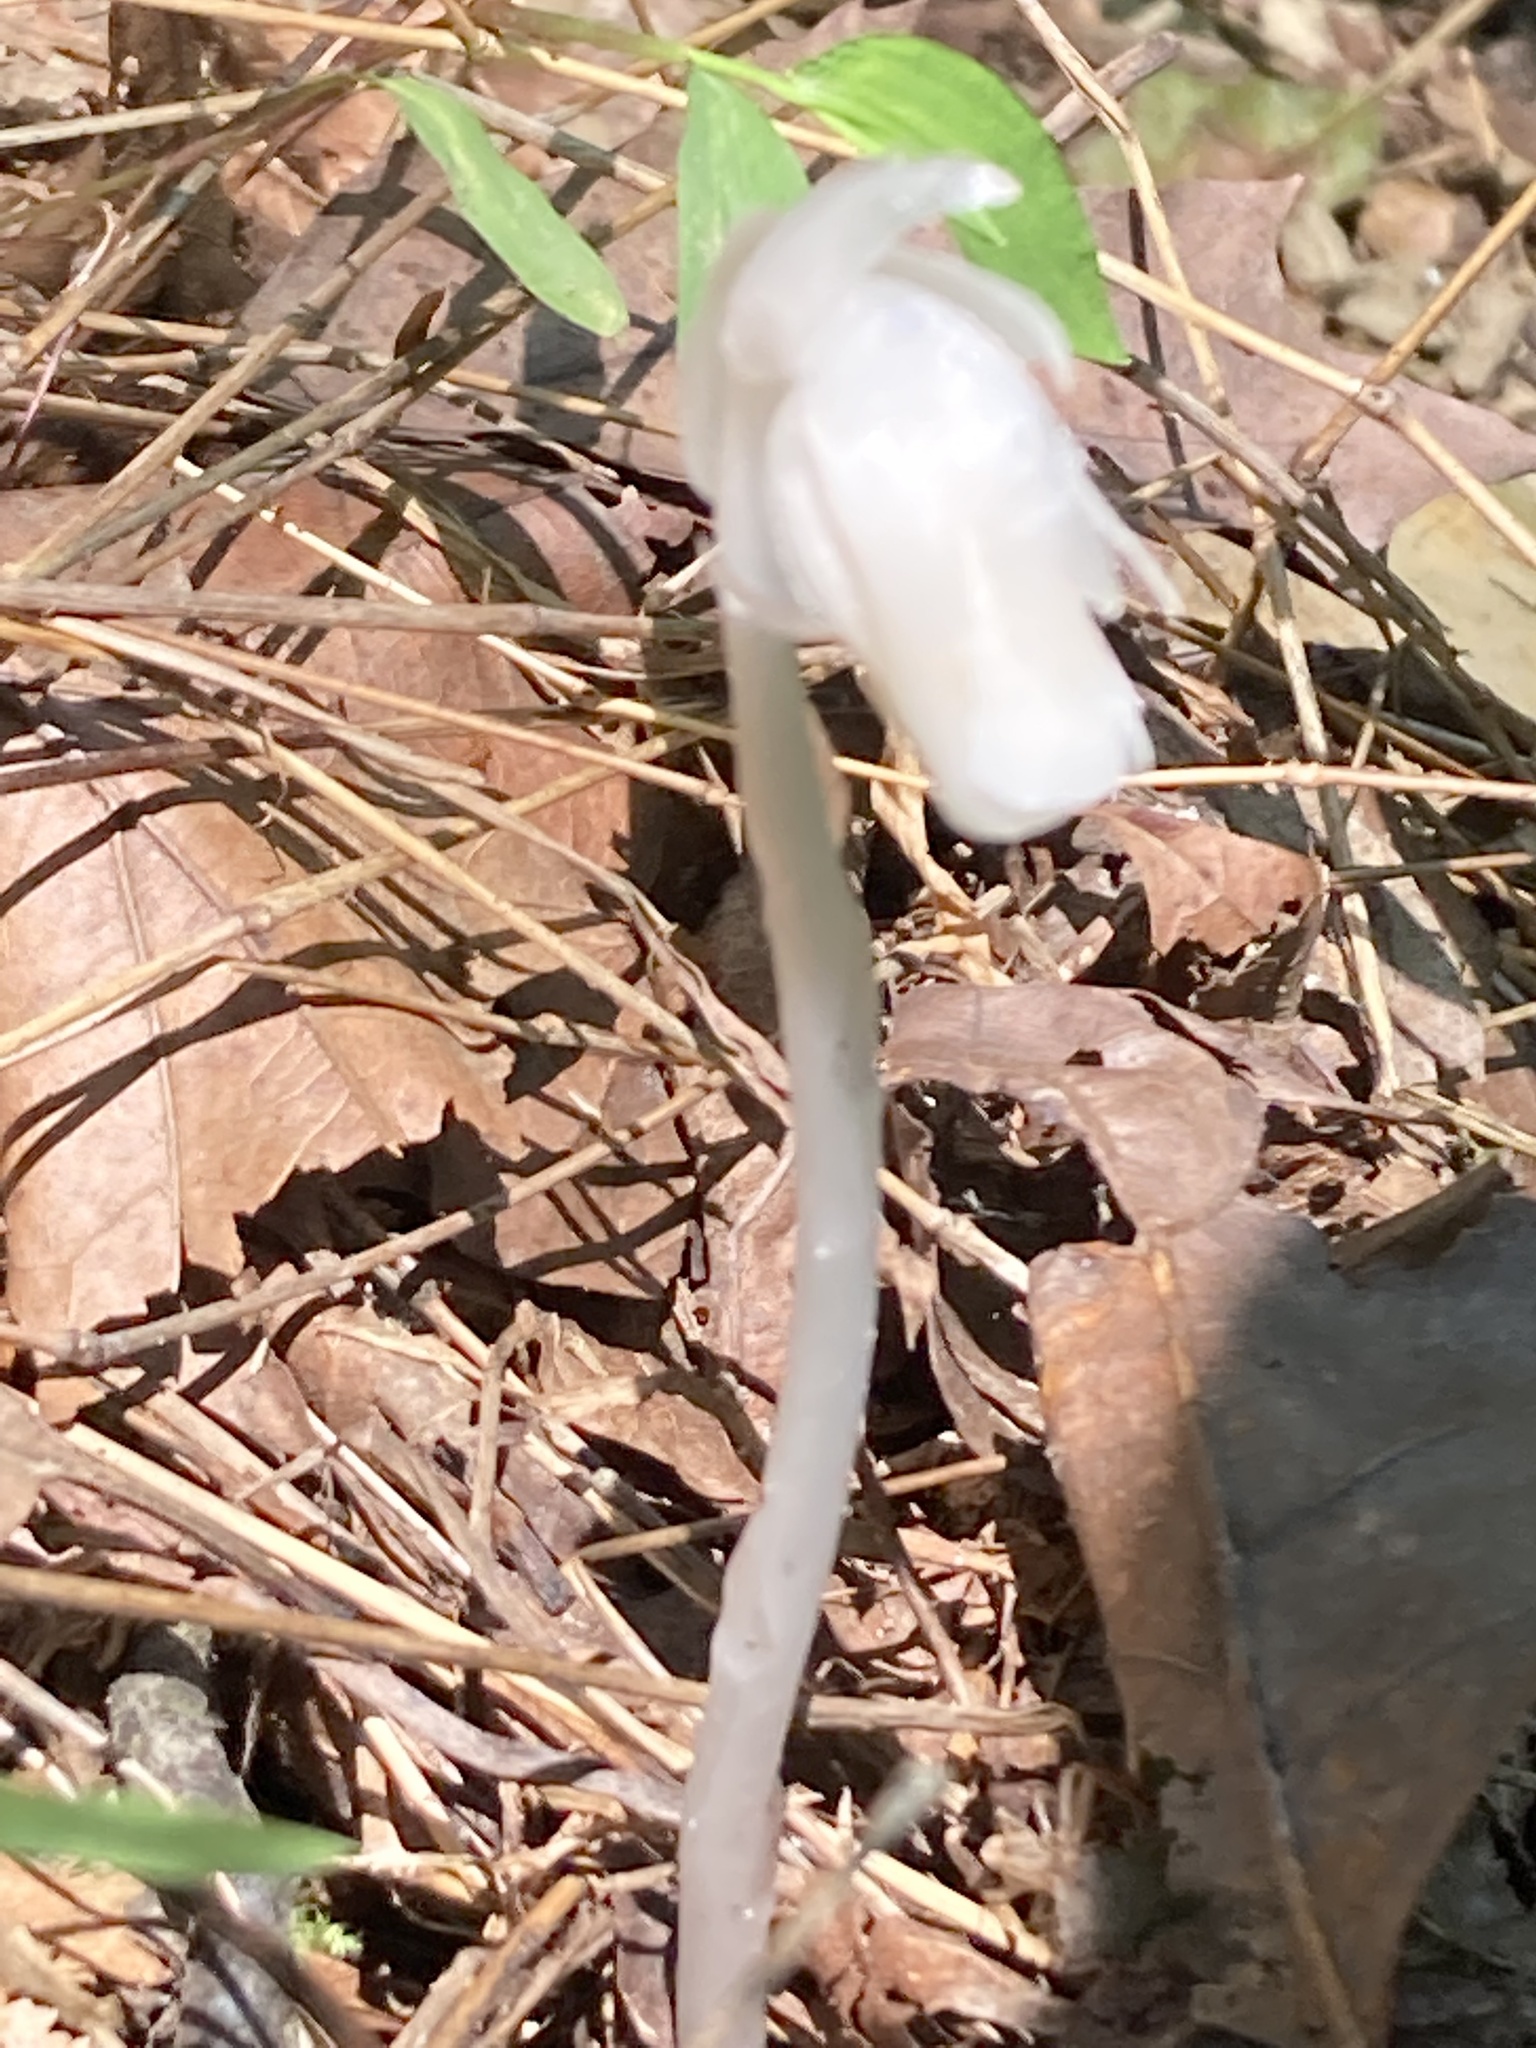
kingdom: Plantae
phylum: Tracheophyta
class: Magnoliopsida
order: Ericales
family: Ericaceae
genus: Monotropa
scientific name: Monotropa uniflora
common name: Convulsion root
